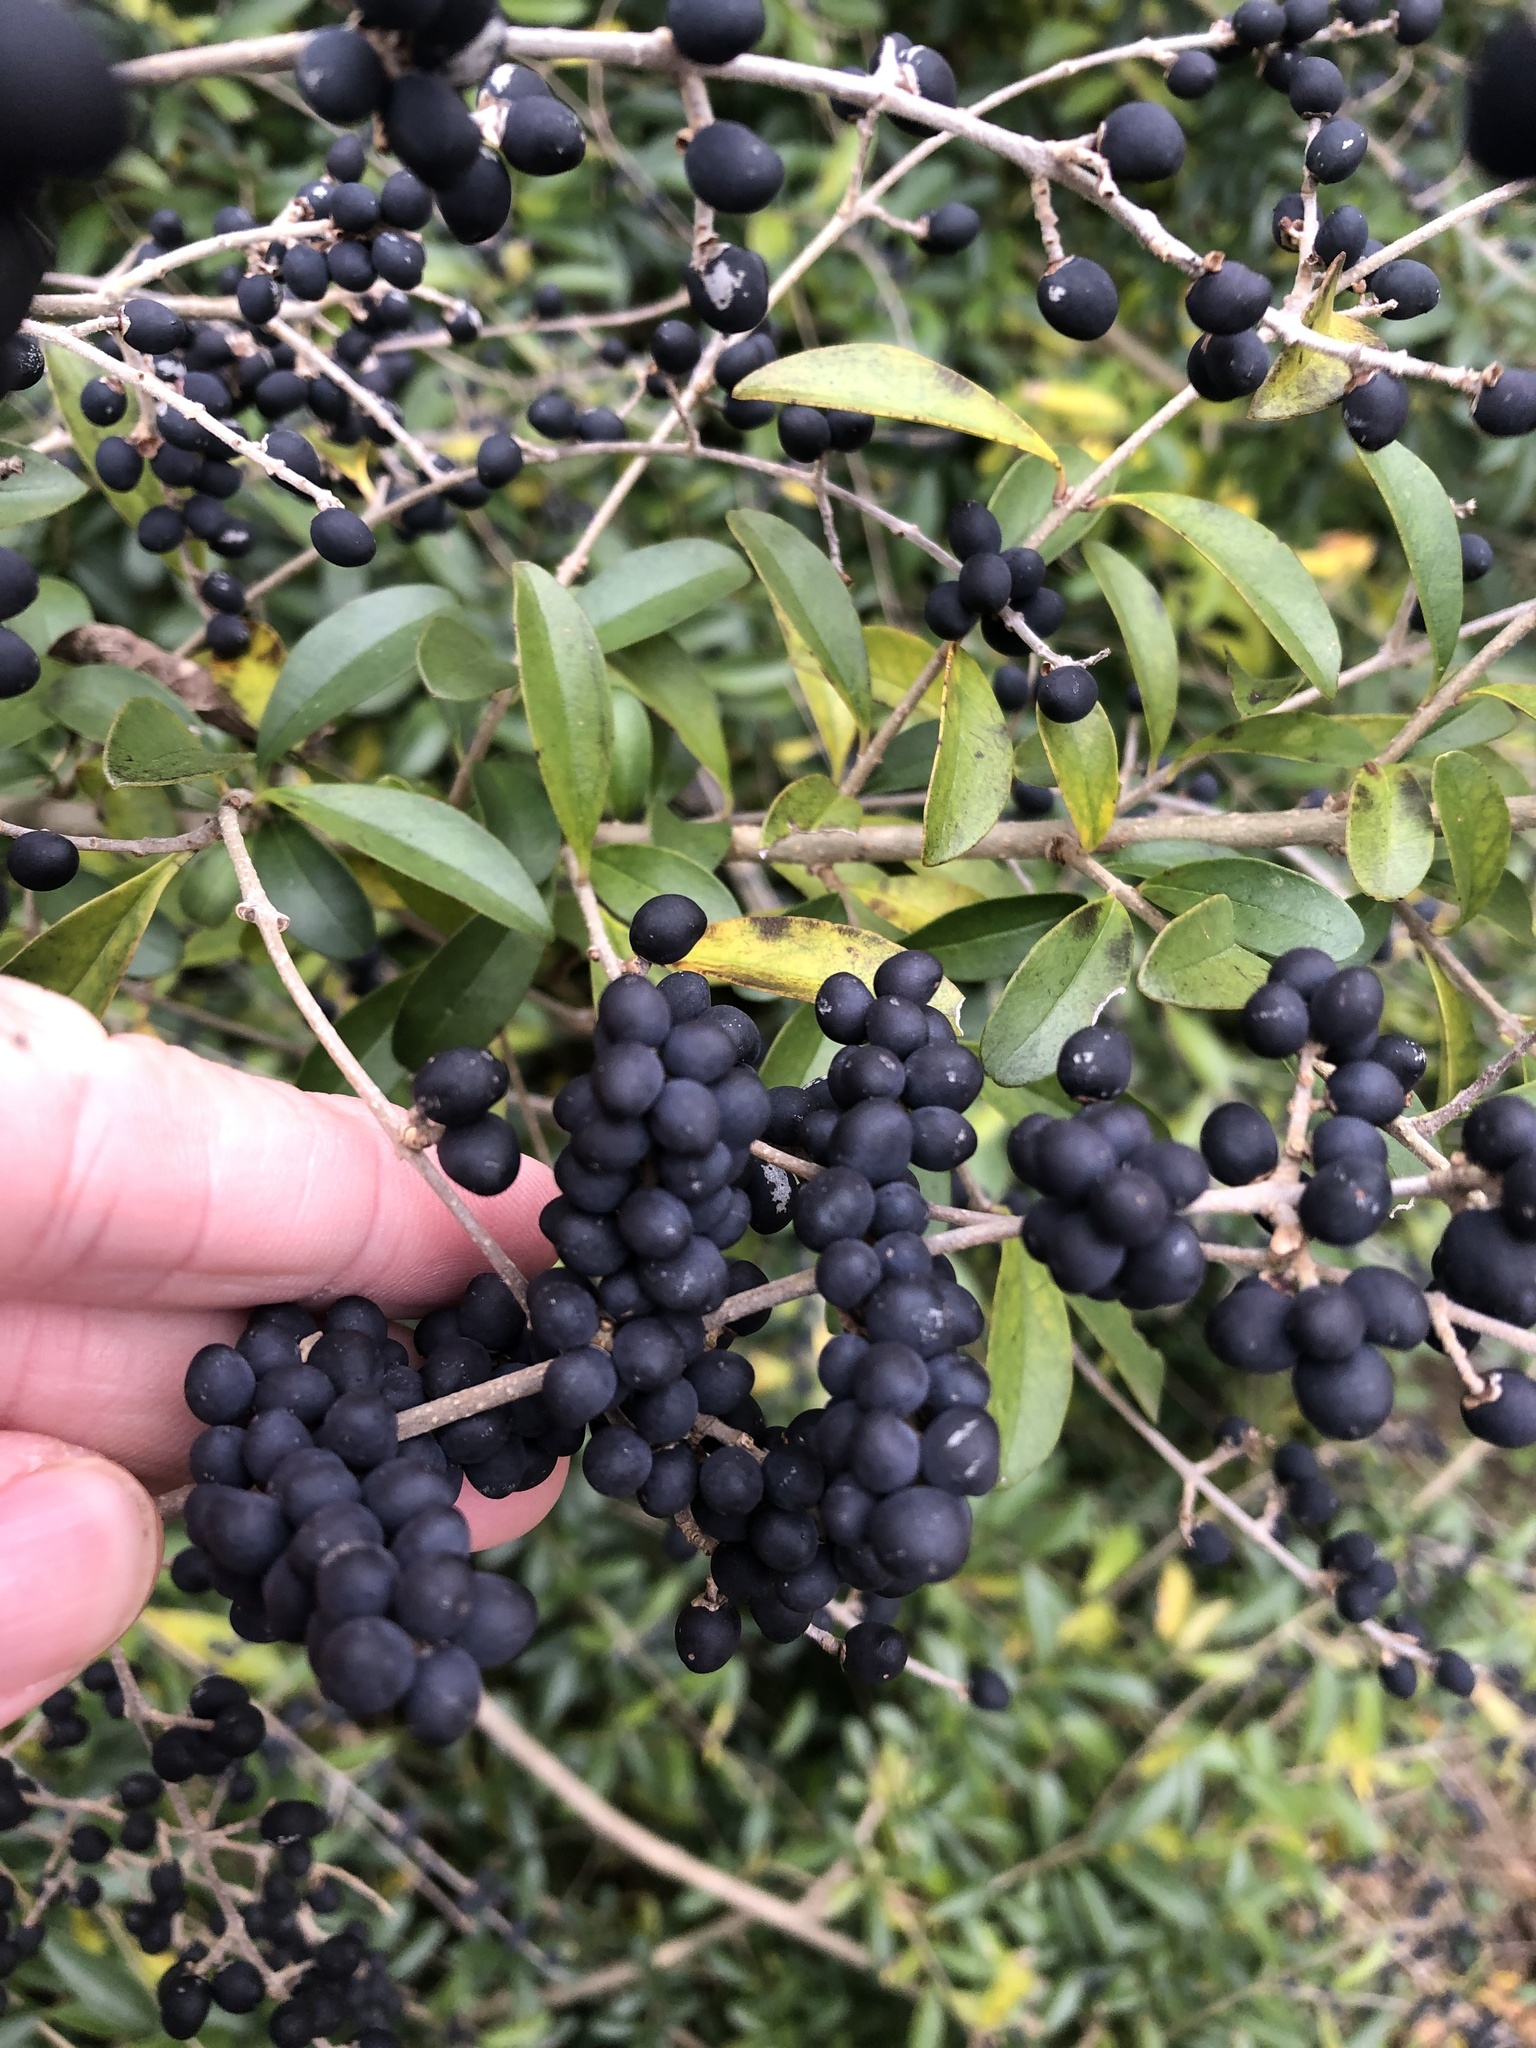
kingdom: Plantae
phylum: Tracheophyta
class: Magnoliopsida
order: Lamiales
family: Oleaceae
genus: Ligustrum
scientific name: Ligustrum quihoui
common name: Waxyleaf privet
